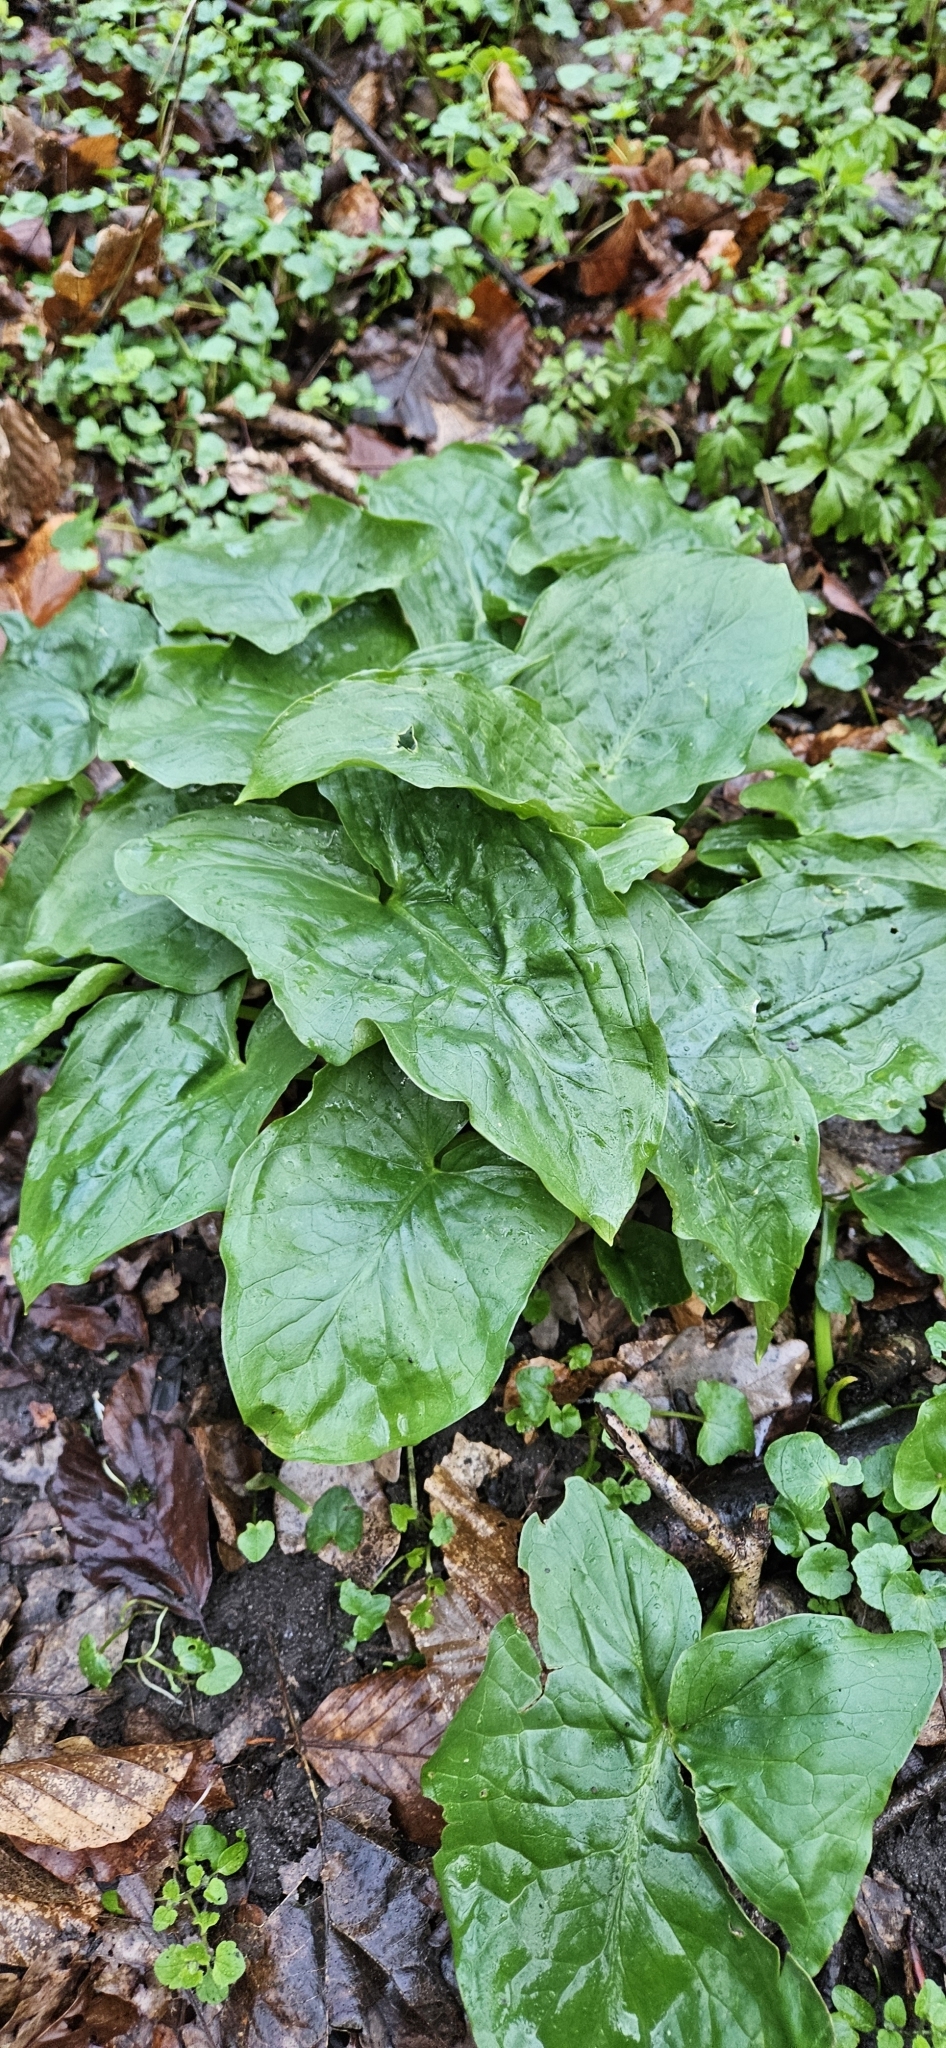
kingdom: Plantae
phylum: Tracheophyta
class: Liliopsida
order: Alismatales
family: Araceae
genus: Arum
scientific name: Arum maculatum
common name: Lords-and-ladies
